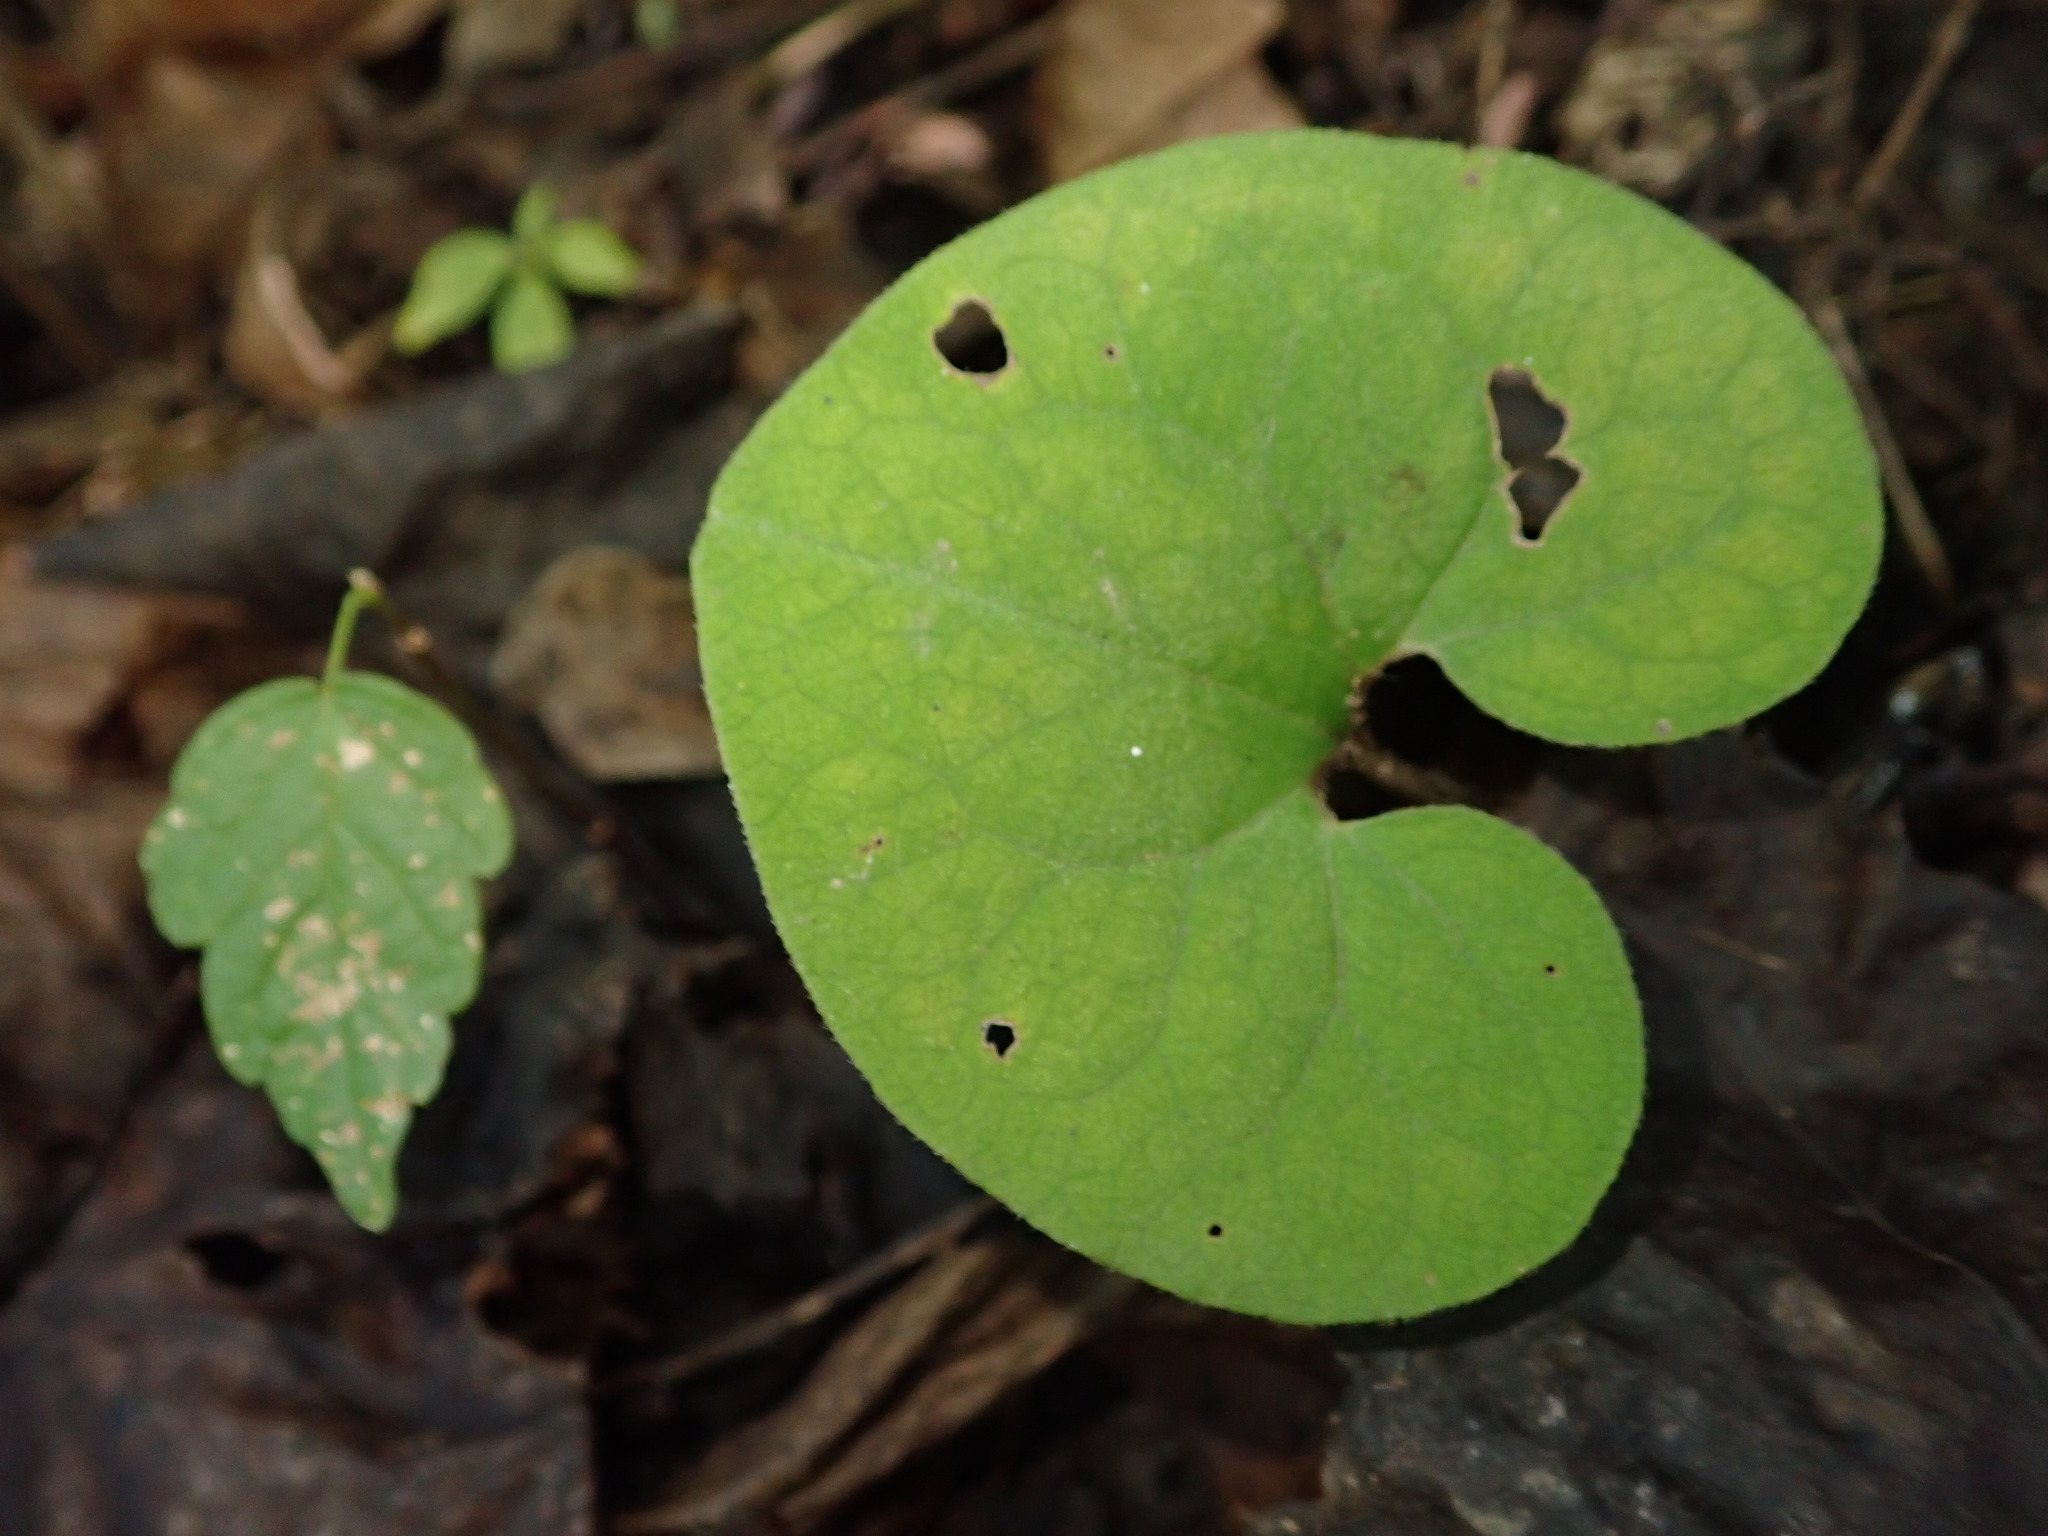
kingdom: Plantae
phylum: Tracheophyta
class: Magnoliopsida
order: Piperales
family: Aristolochiaceae
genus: Asarum
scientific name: Asarum canadense
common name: Wild ginger
